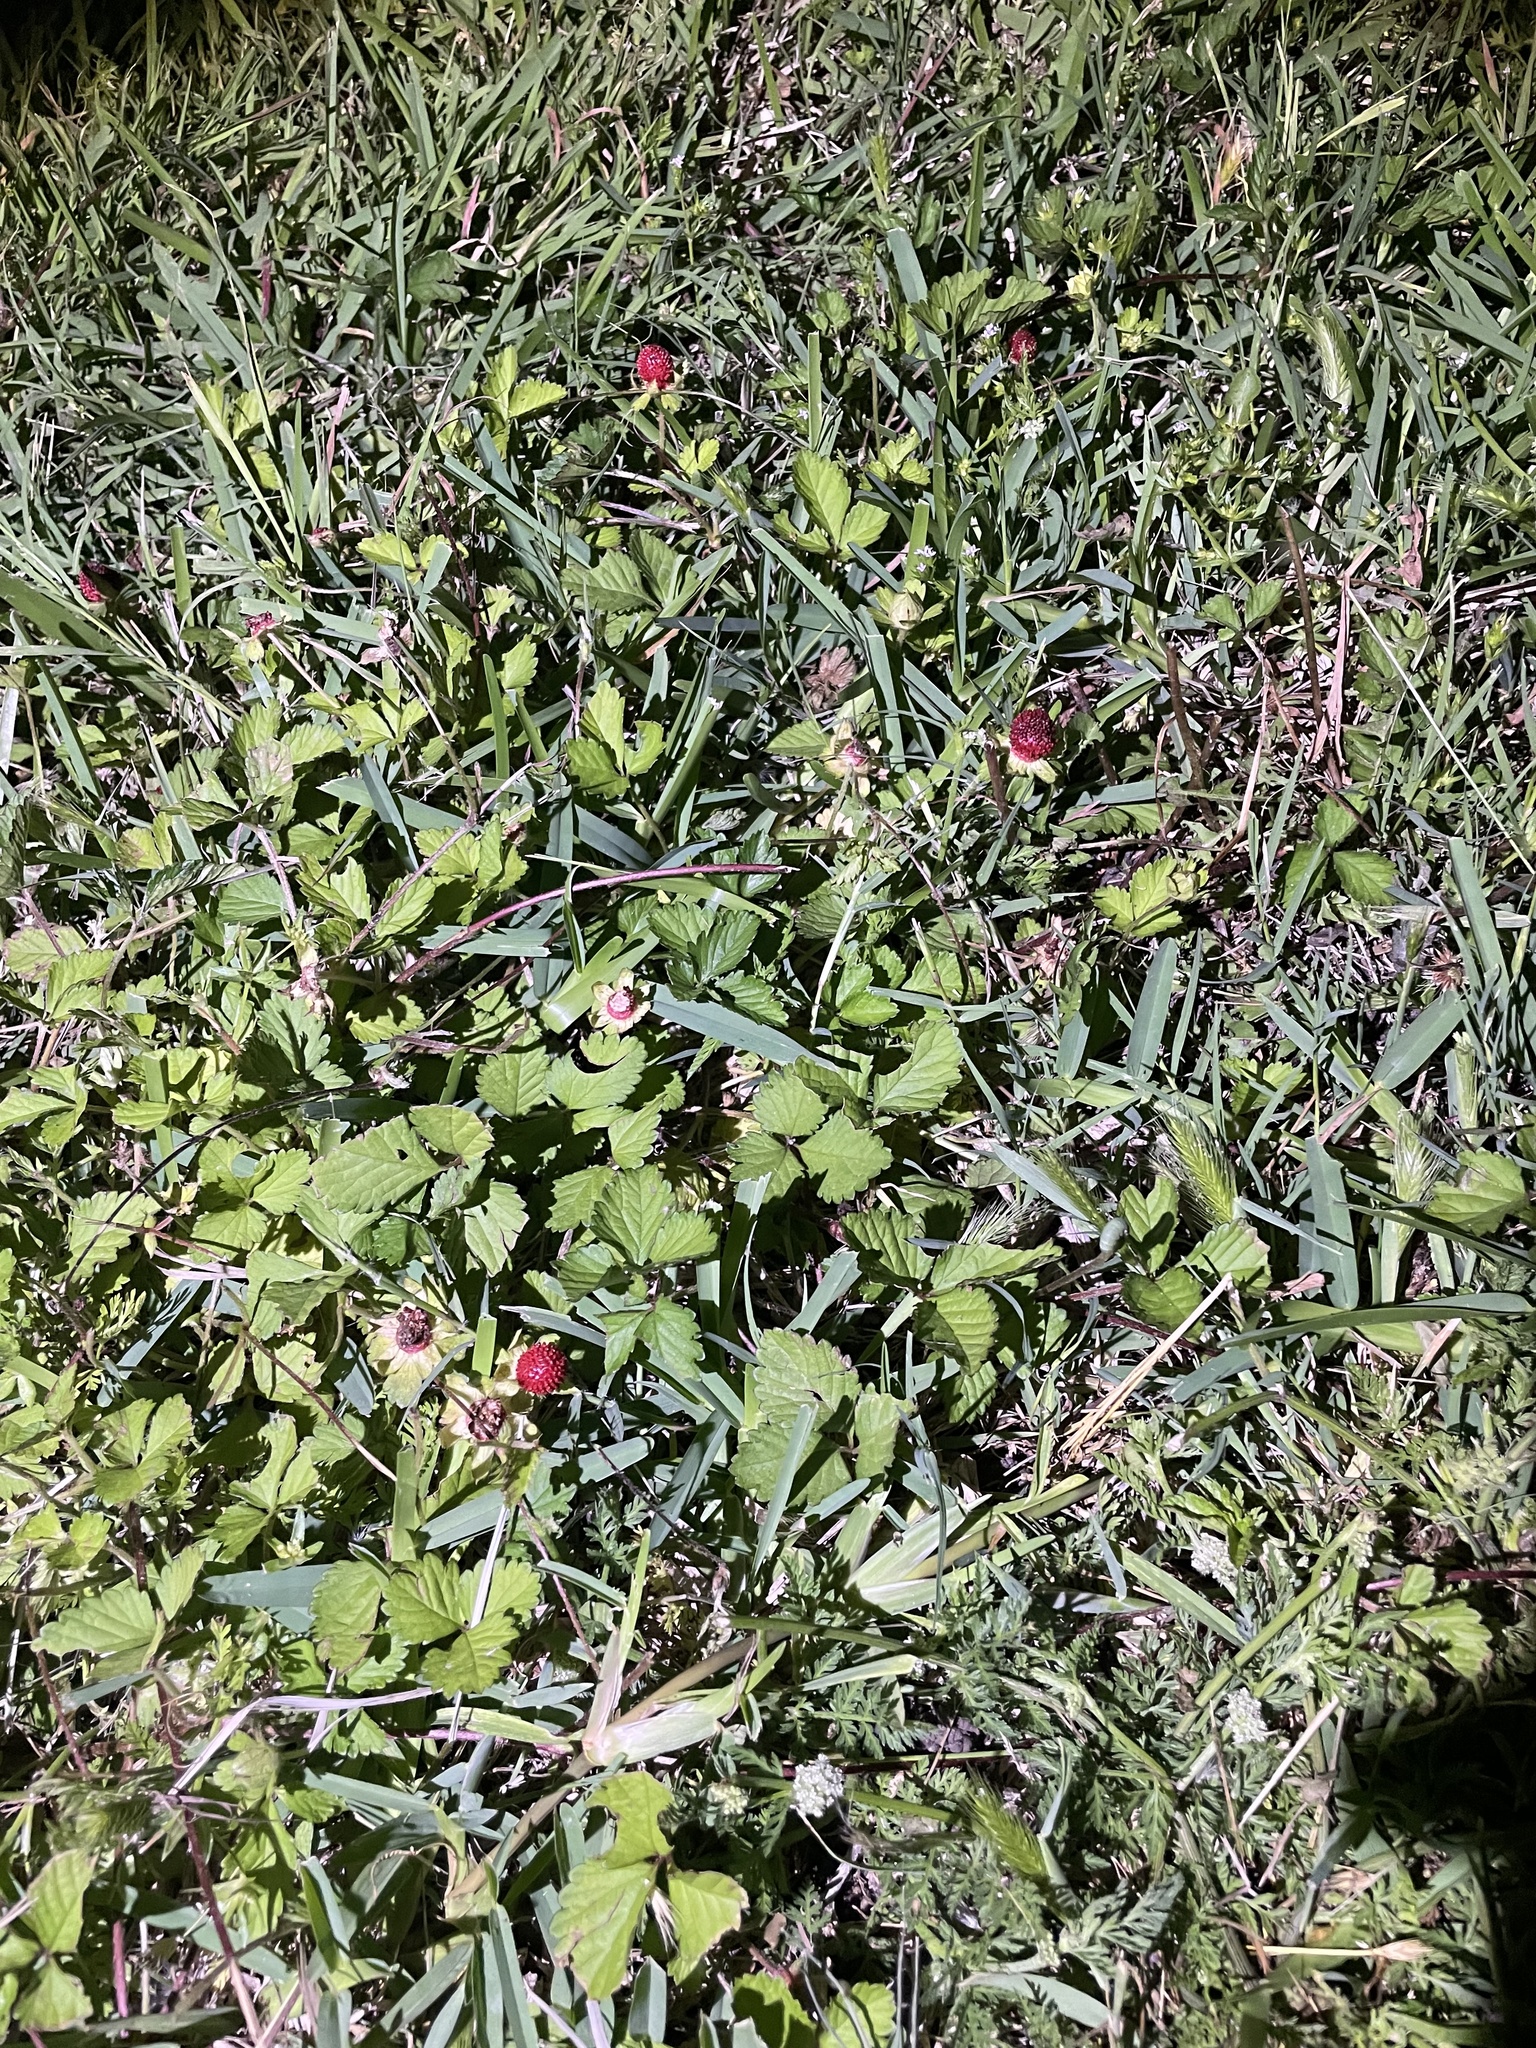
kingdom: Plantae
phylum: Tracheophyta
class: Magnoliopsida
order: Rosales
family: Rosaceae
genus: Potentilla
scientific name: Potentilla indica
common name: Yellow-flowered strawberry
